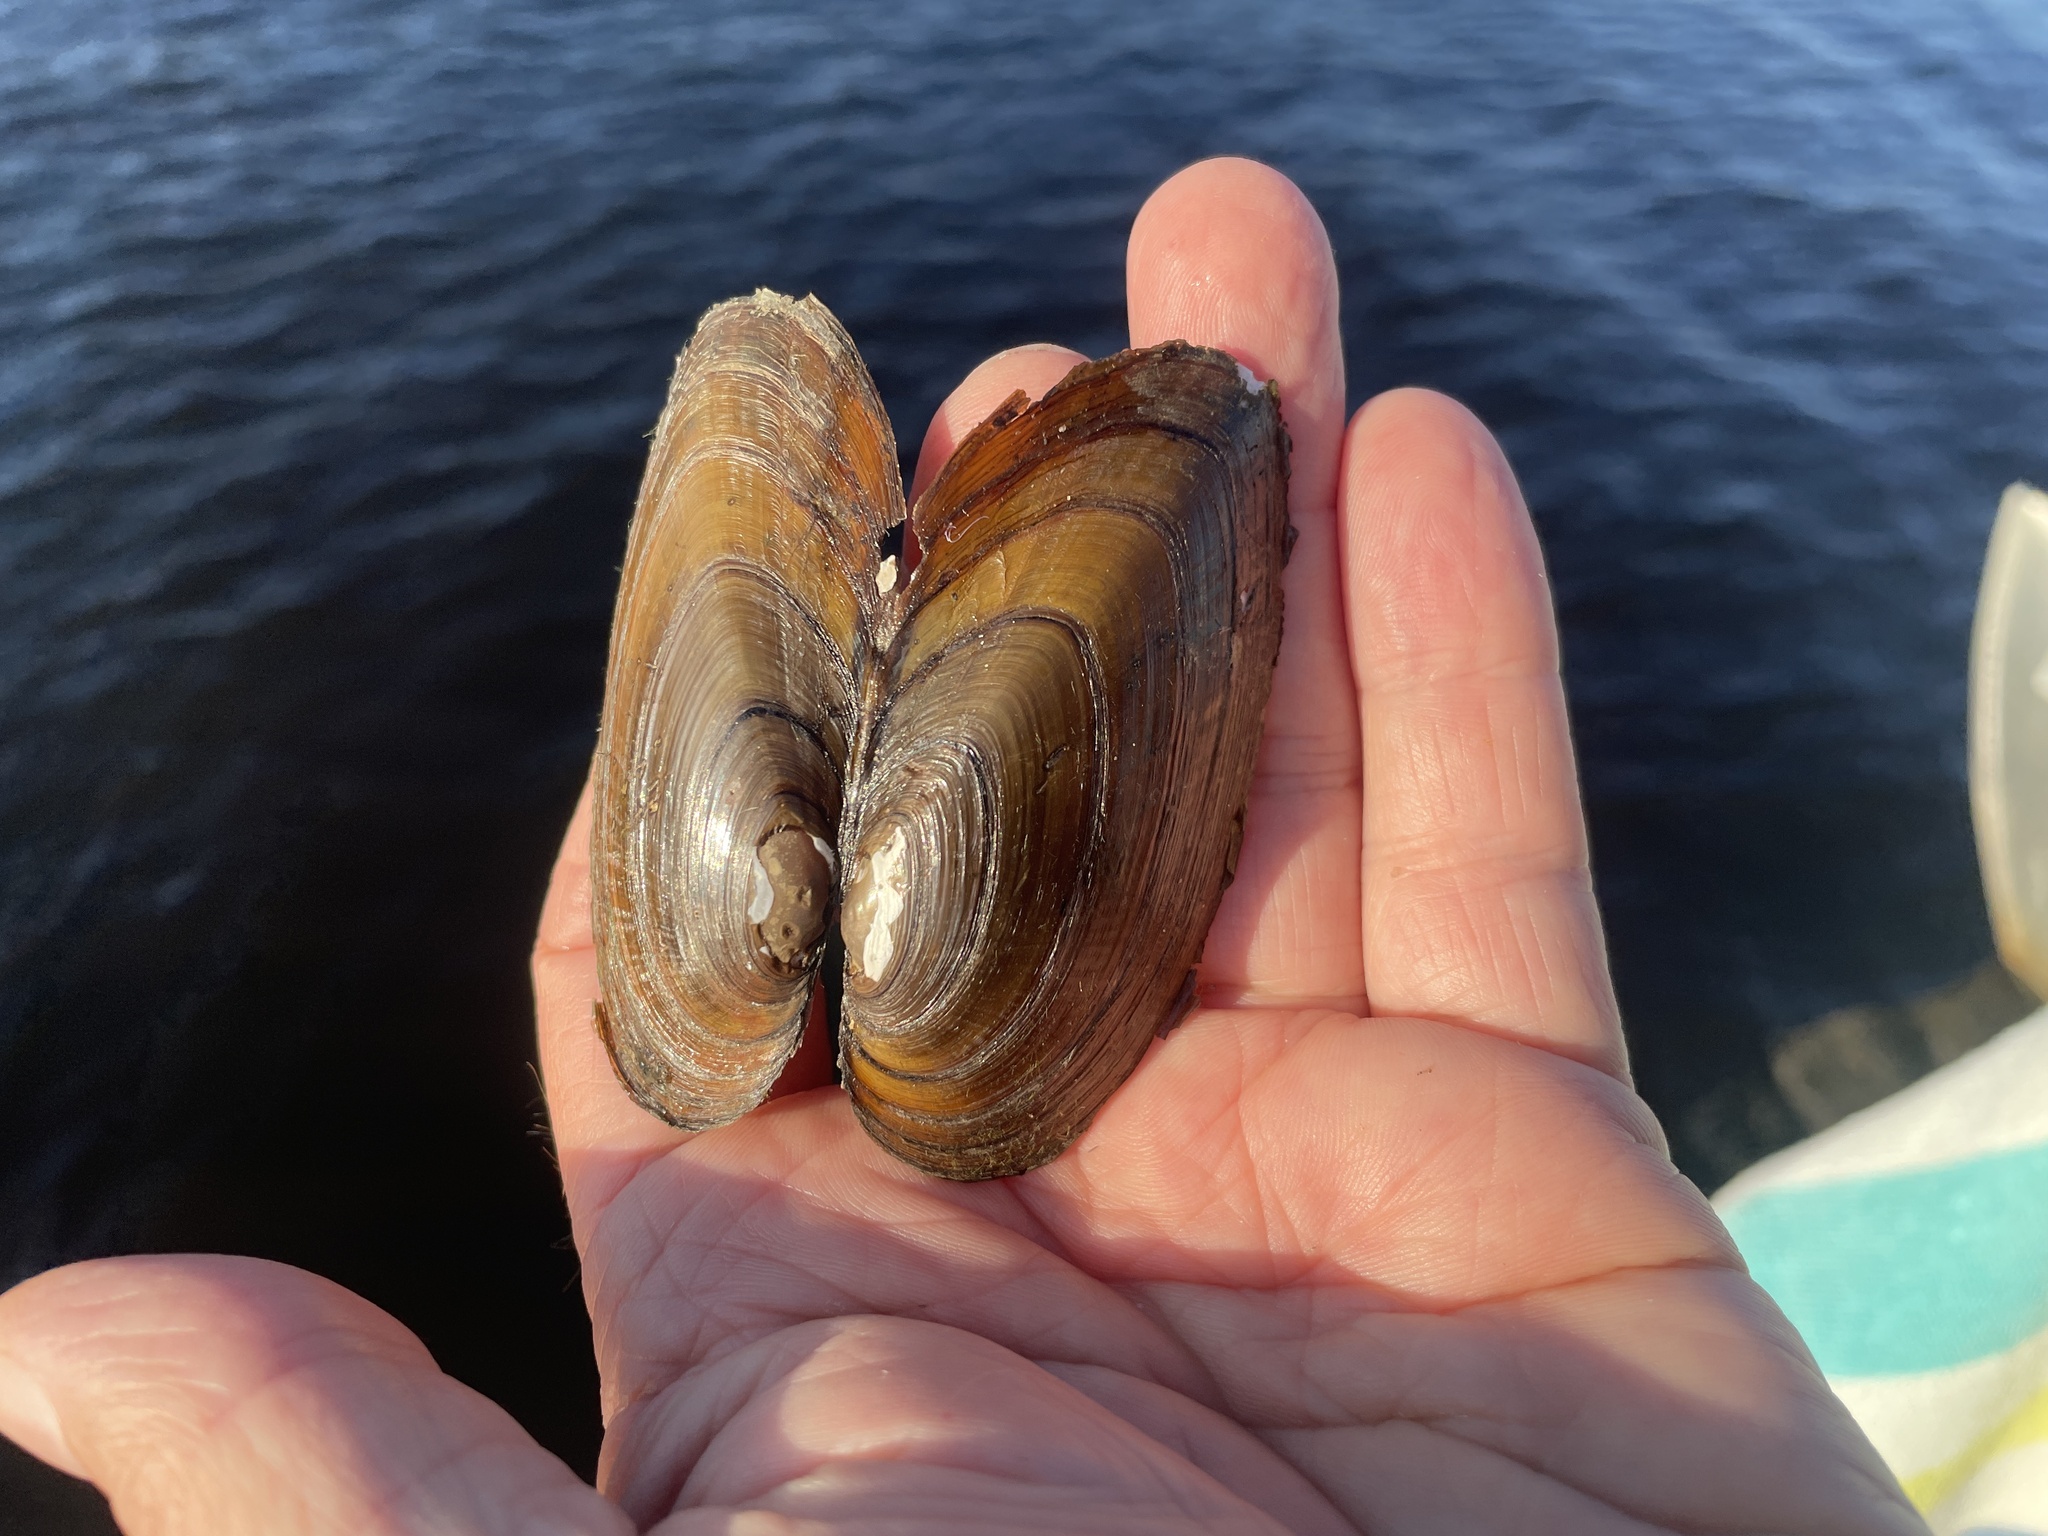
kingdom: Animalia
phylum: Mollusca
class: Bivalvia
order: Unionida
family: Unionidae
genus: Elliptio
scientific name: Elliptio complanata
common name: Eastern elliptio
